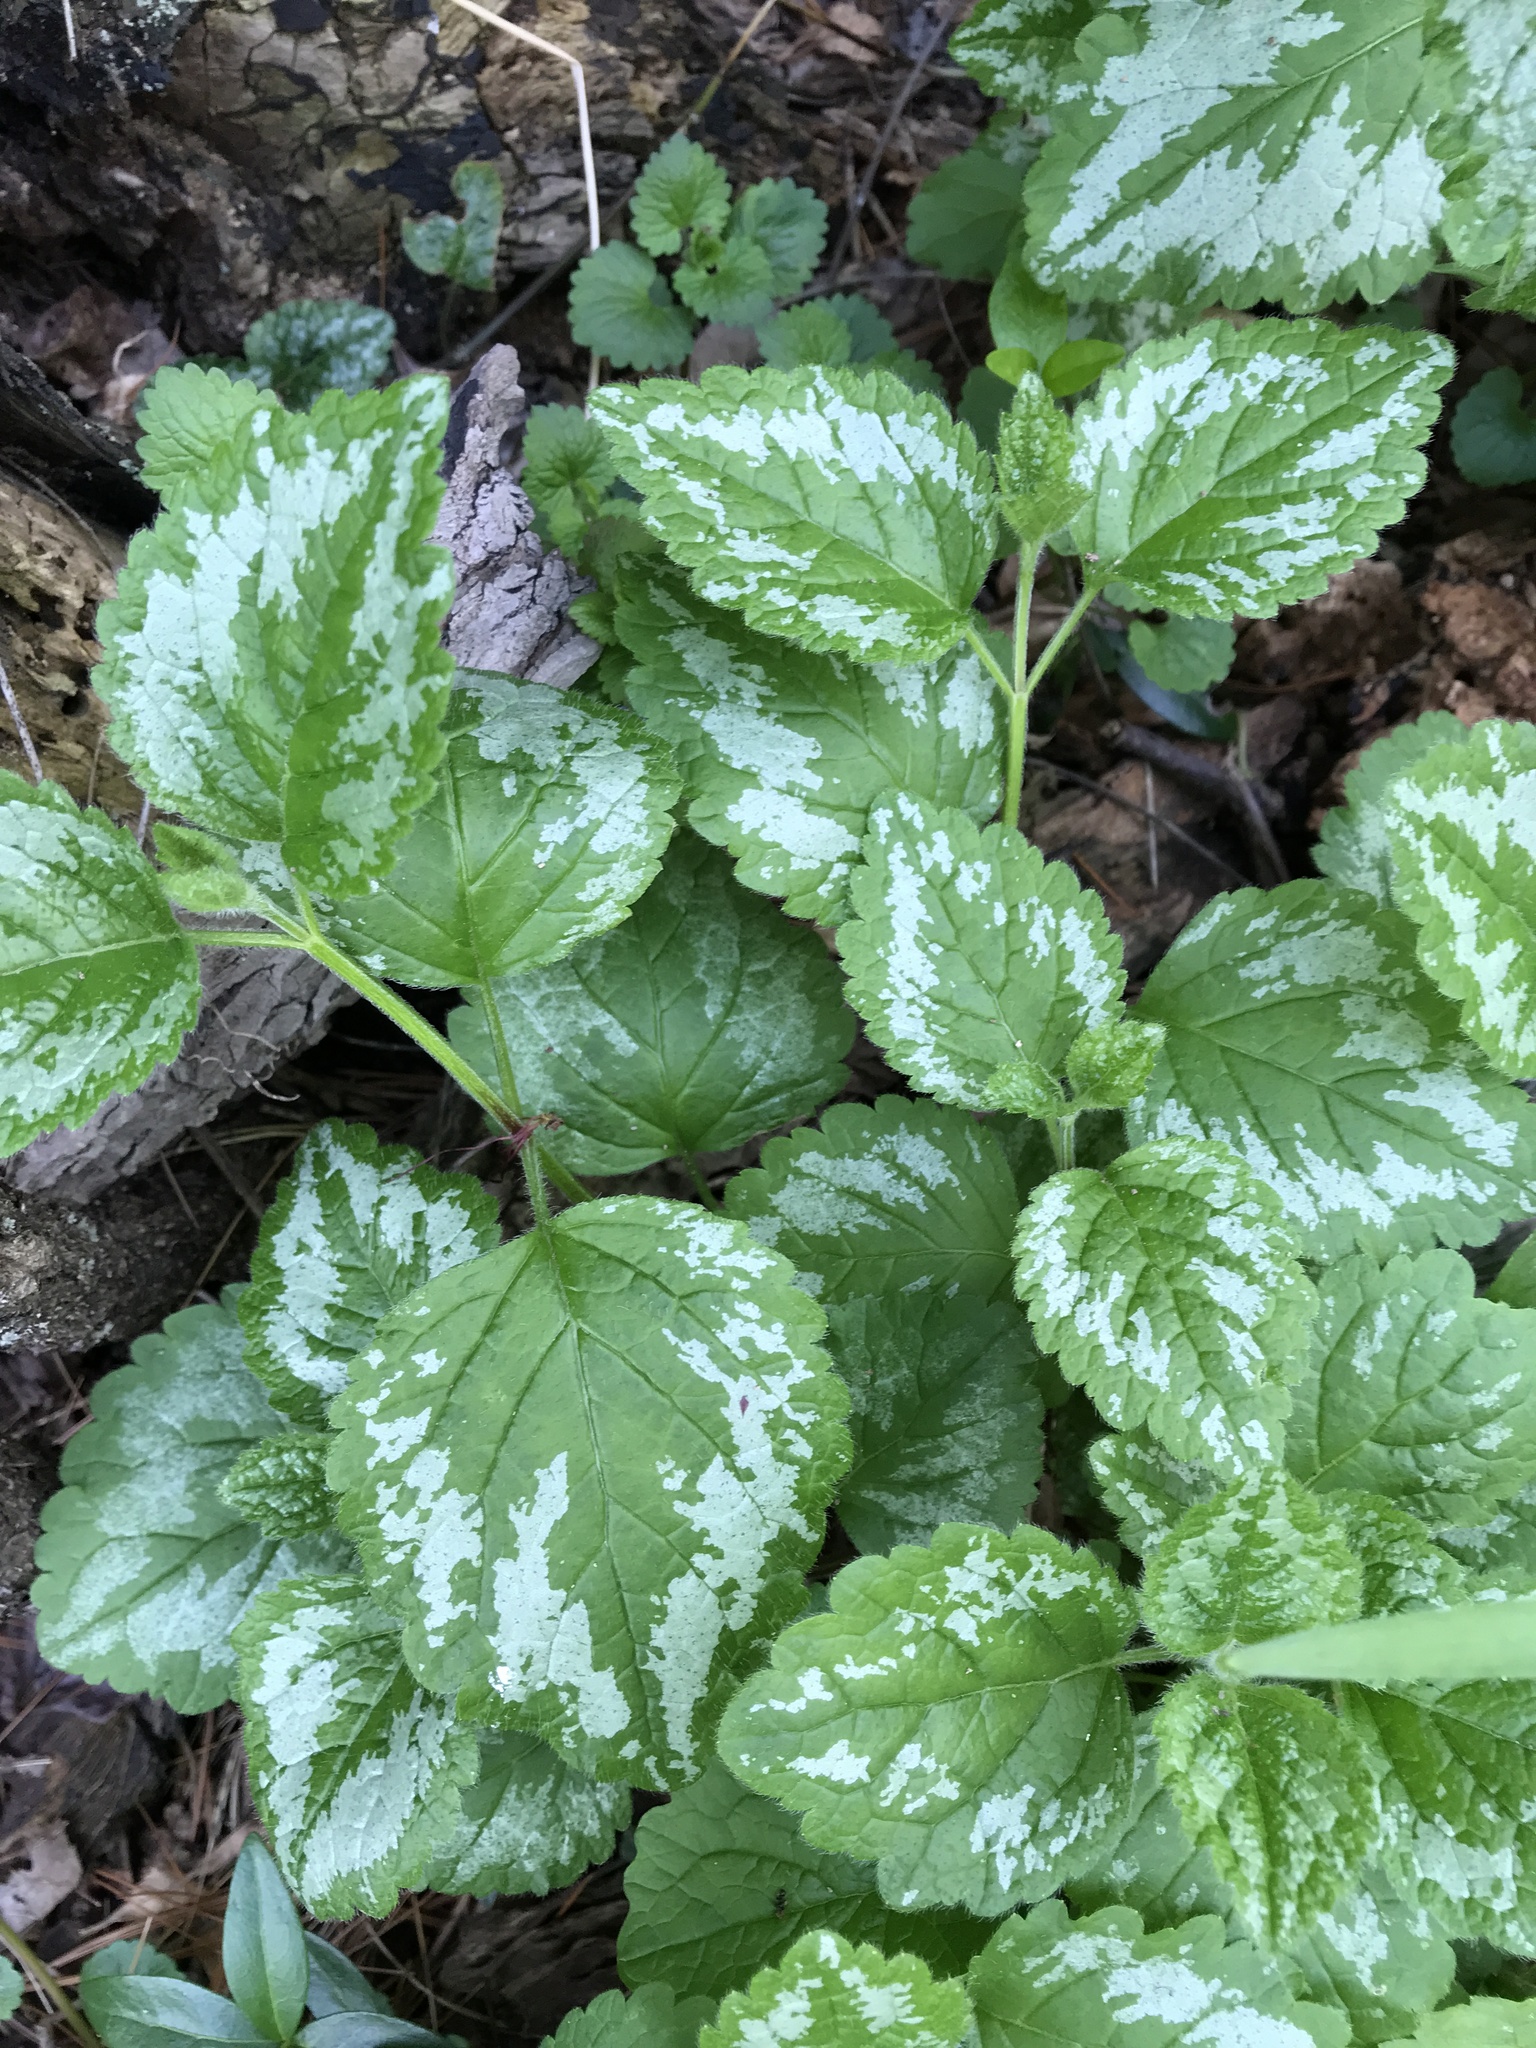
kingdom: Plantae
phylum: Tracheophyta
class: Magnoliopsida
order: Lamiales
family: Lamiaceae
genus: Lamium
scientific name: Lamium galeobdolon
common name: Yellow archangel
